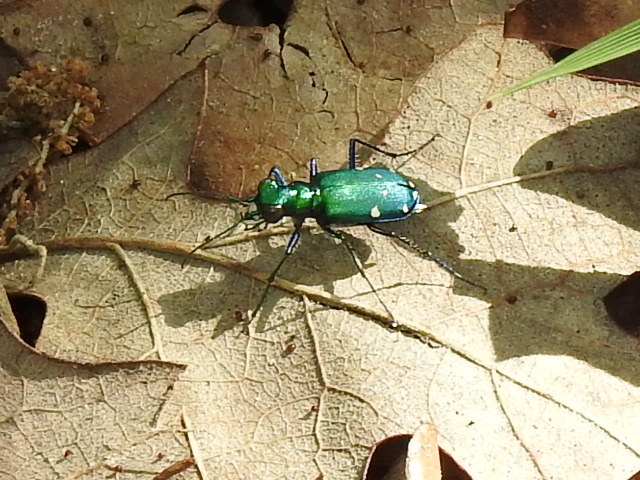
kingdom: Animalia
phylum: Arthropoda
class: Insecta
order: Coleoptera
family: Carabidae
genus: Cicindela
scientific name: Cicindela sexguttata
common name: Six-spotted tiger beetle
